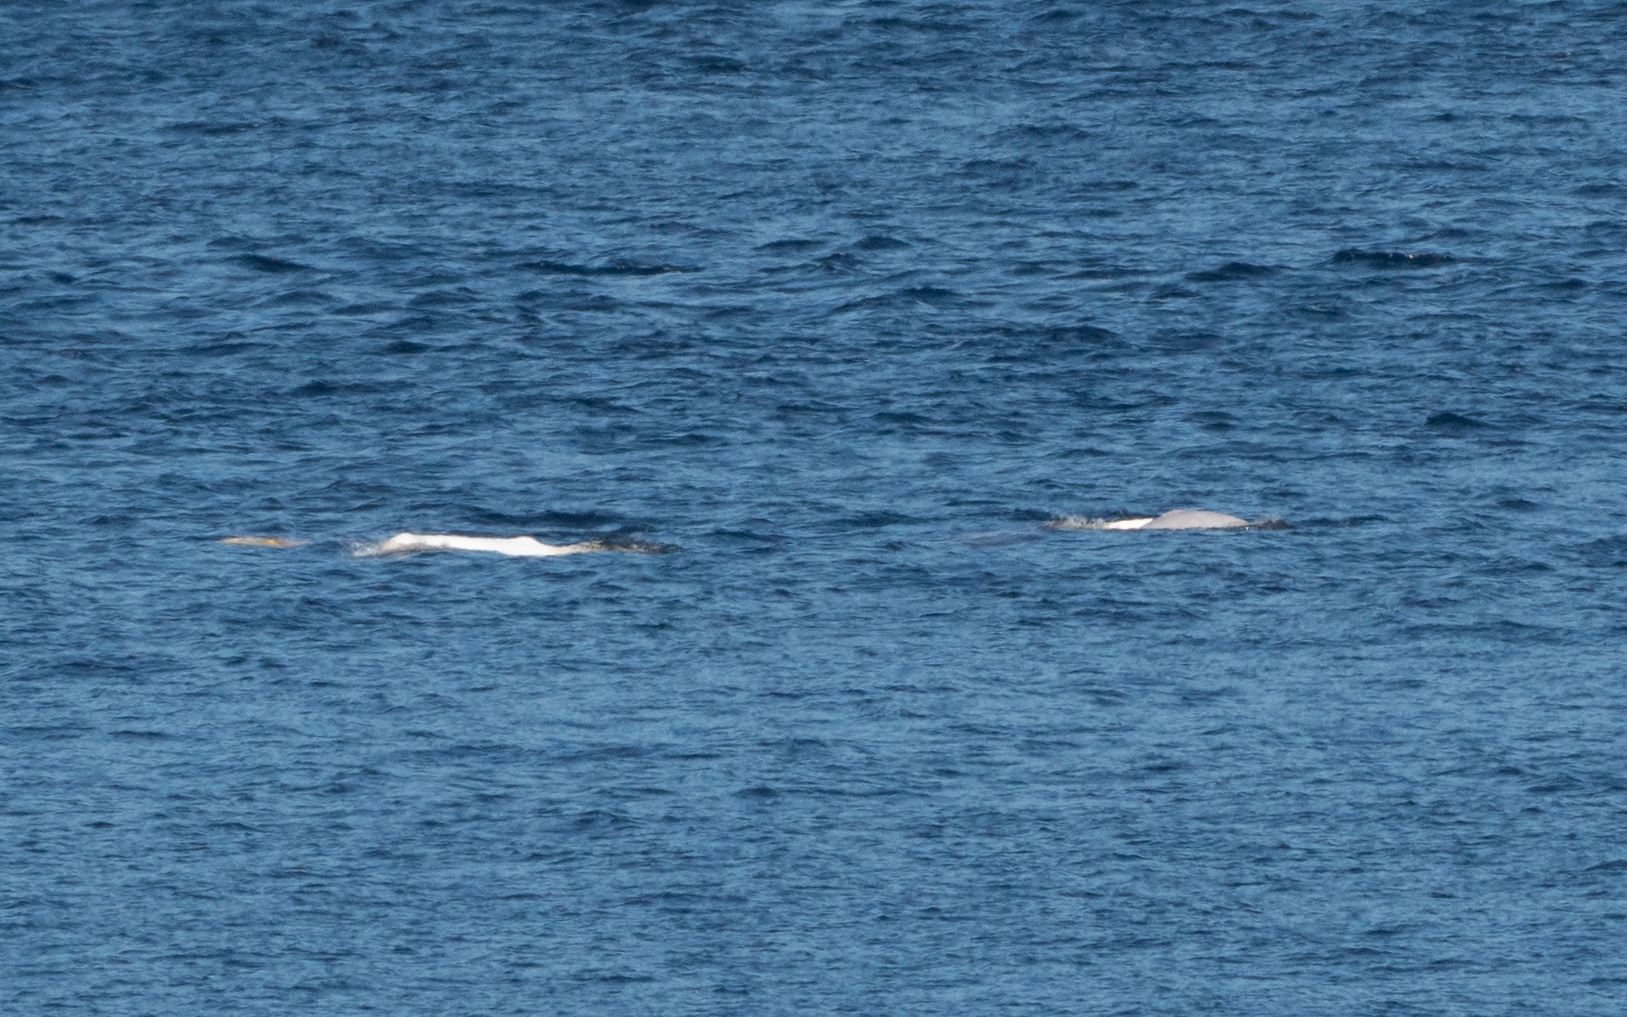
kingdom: Animalia
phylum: Chordata
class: Mammalia
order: Cetacea
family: Monodontidae
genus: Delphinapterus
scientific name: Delphinapterus leucas
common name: Beluga
